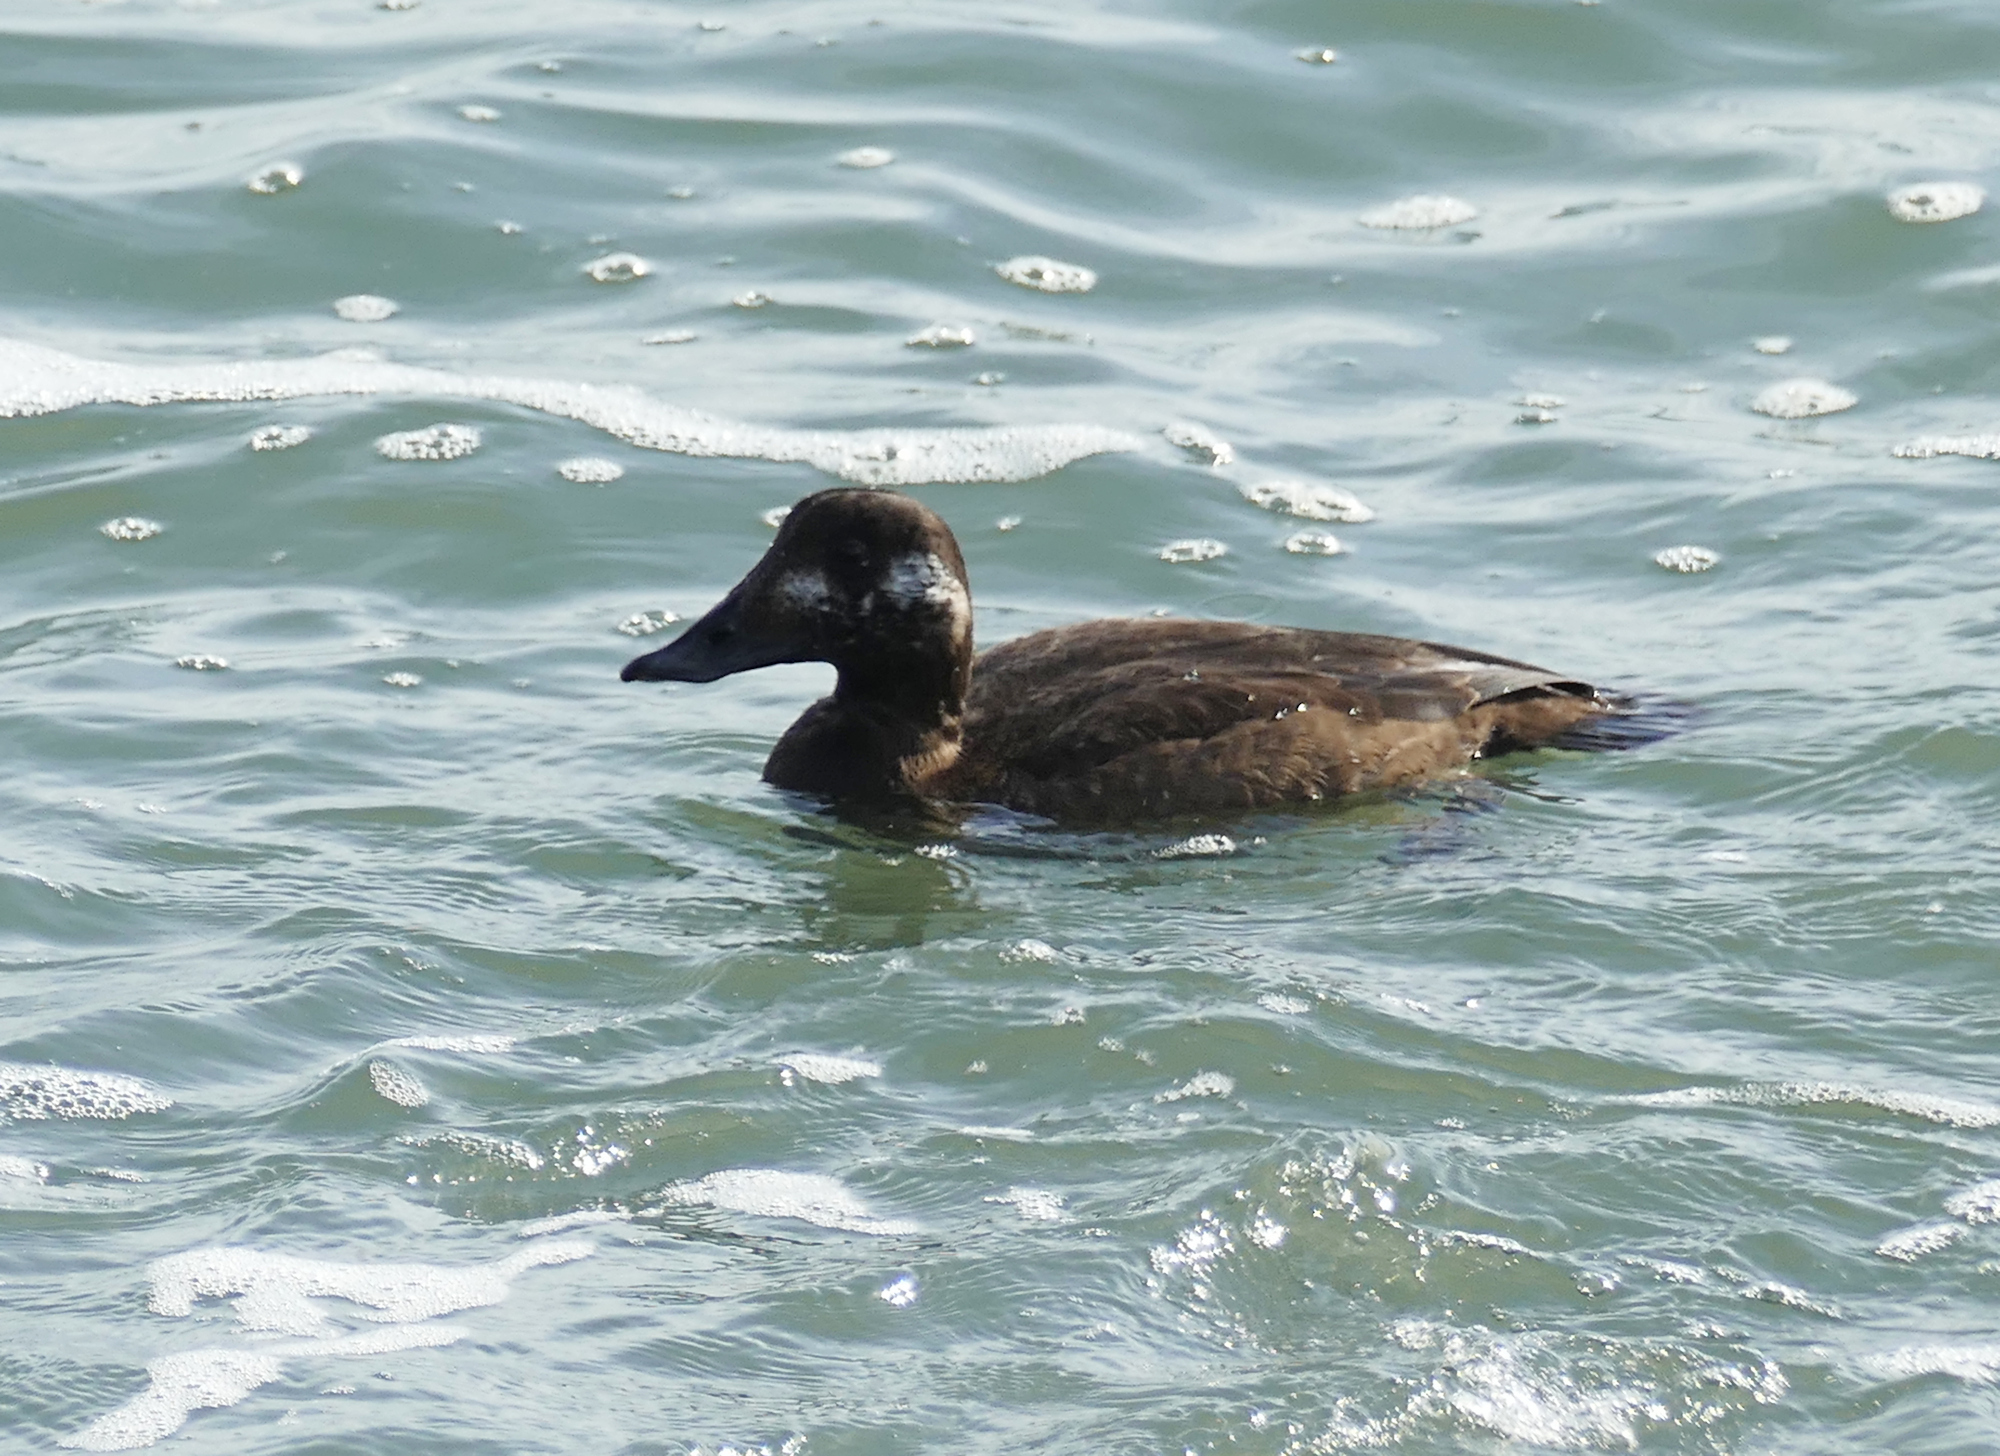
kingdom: Animalia
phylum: Chordata
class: Aves
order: Anseriformes
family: Anatidae
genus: Melanitta
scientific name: Melanitta deglandi
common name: White-winged scoter
